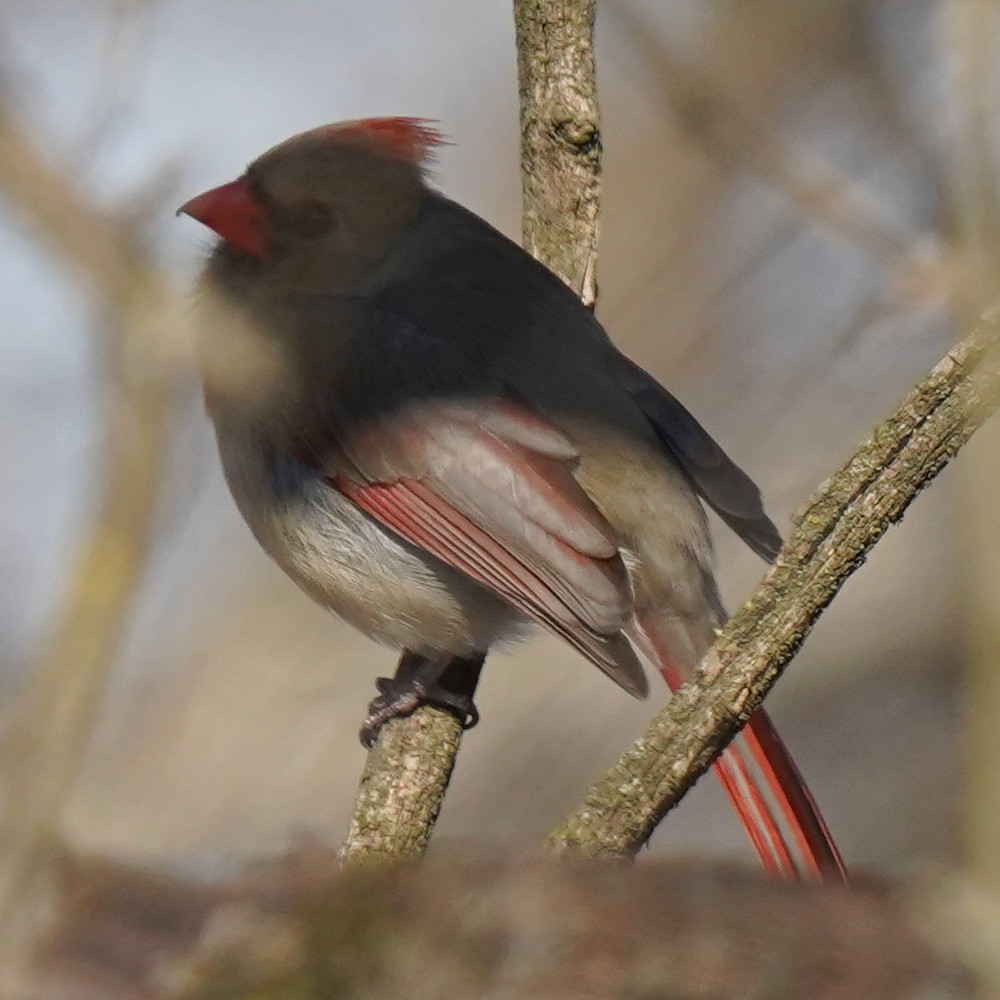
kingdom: Animalia
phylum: Chordata
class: Aves
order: Passeriformes
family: Cardinalidae
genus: Cardinalis
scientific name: Cardinalis cardinalis
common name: Northern cardinal
